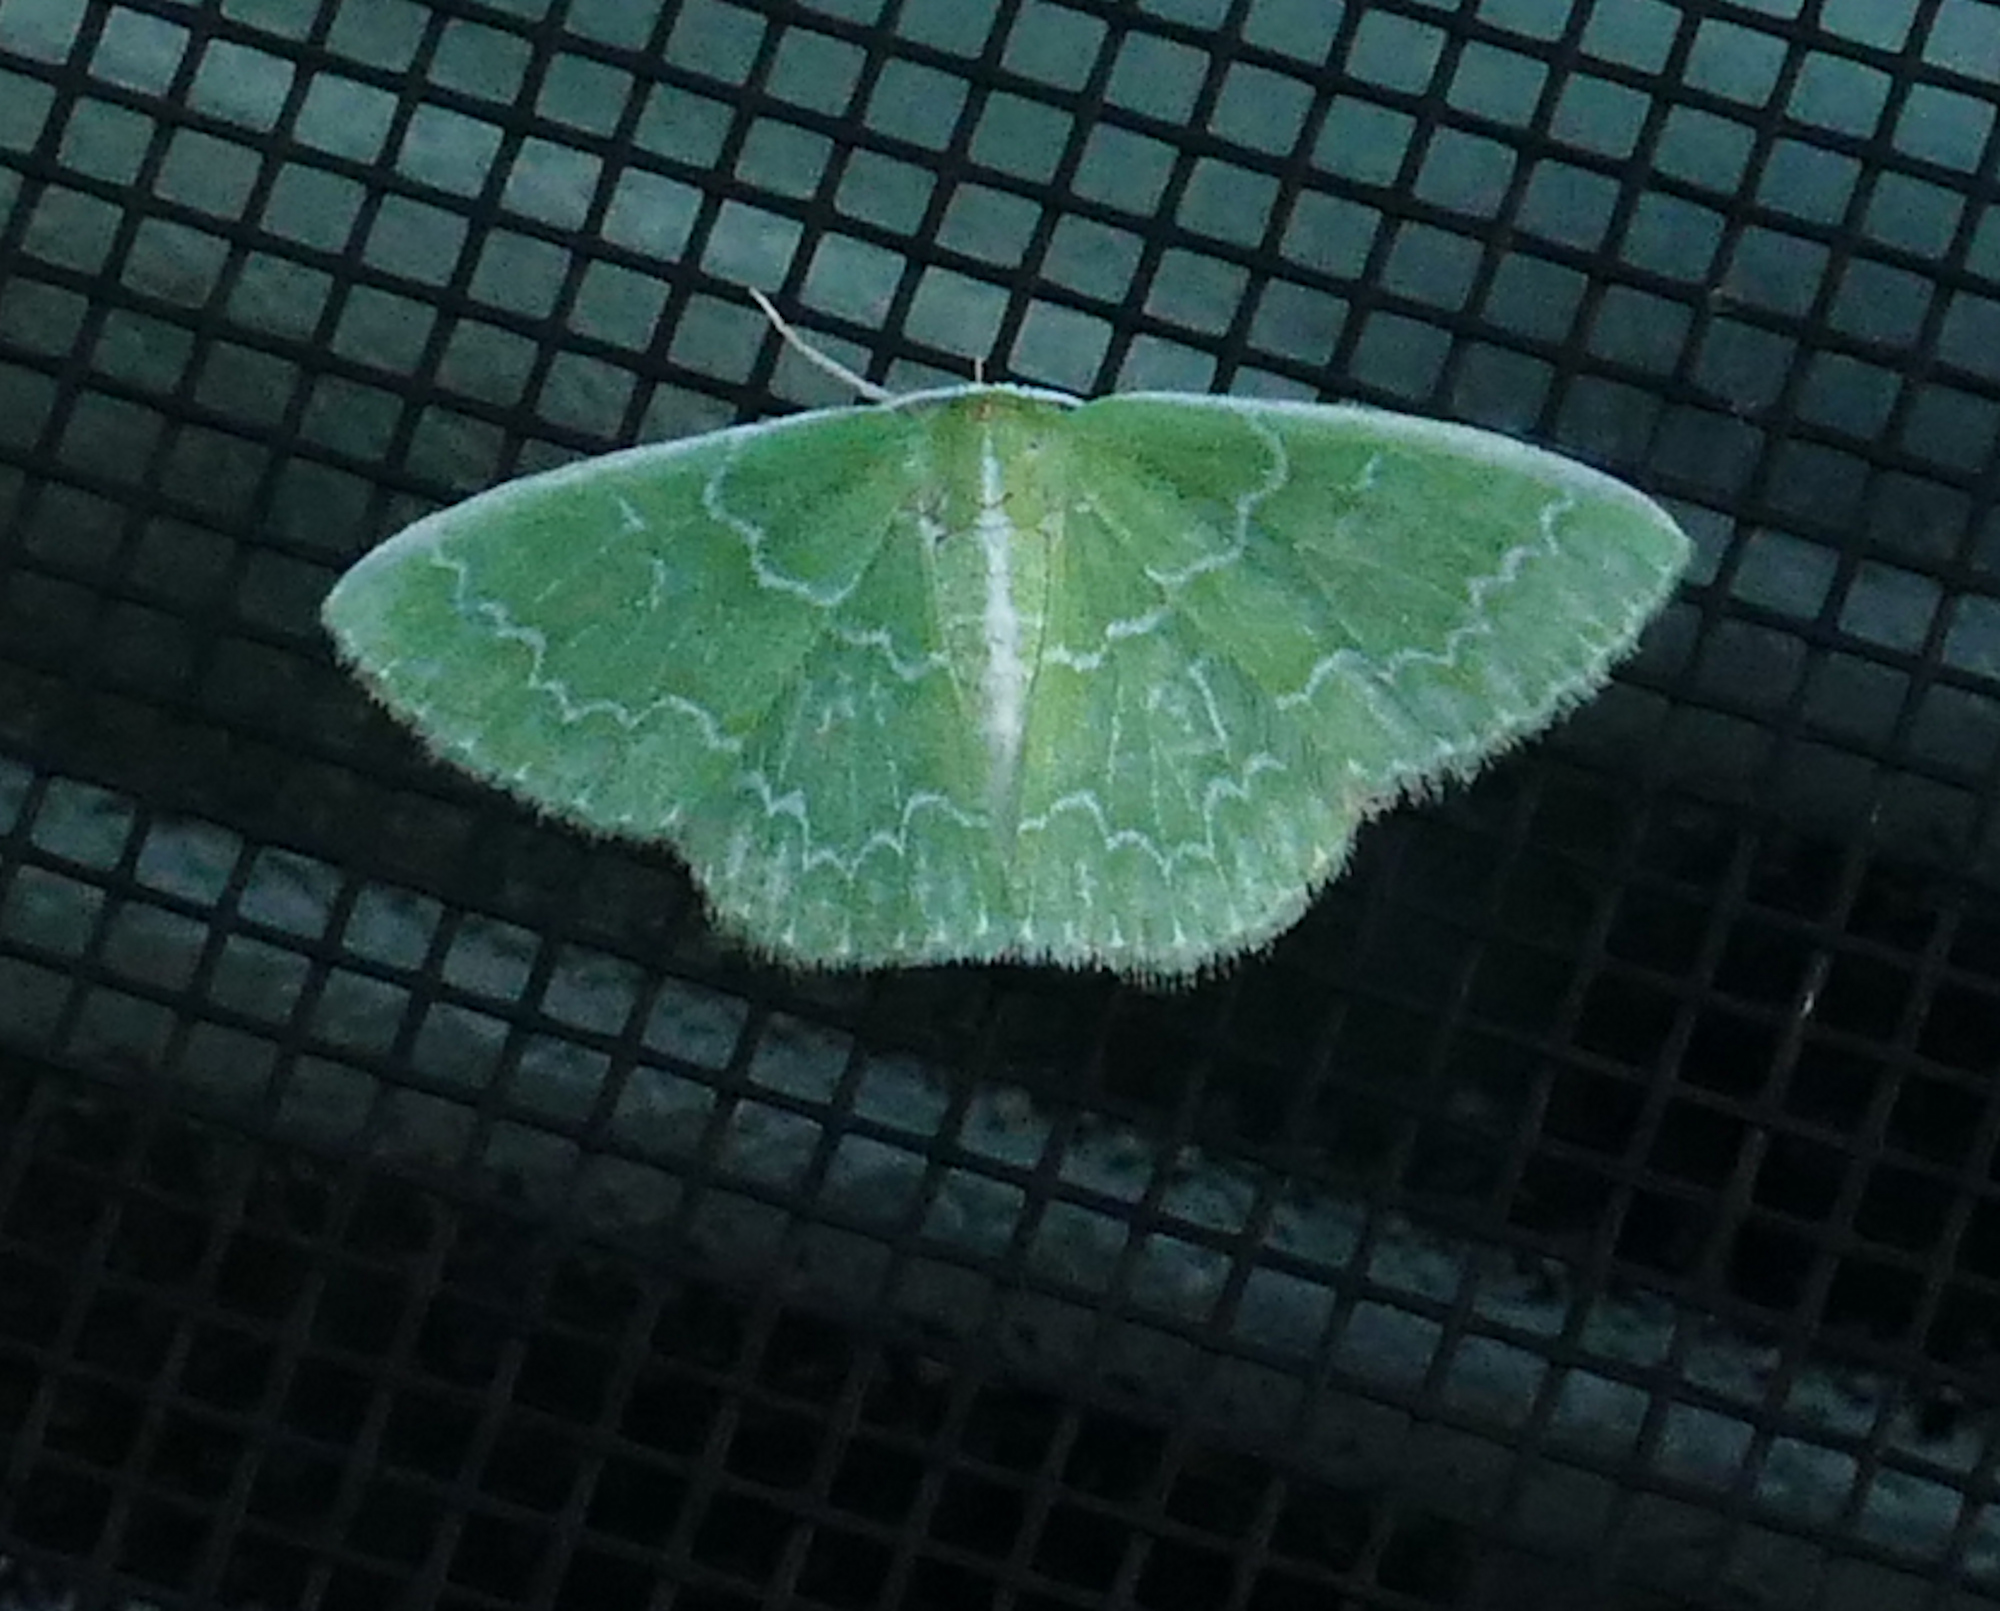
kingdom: Animalia
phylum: Arthropoda
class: Insecta
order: Lepidoptera
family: Geometridae
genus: Synchlora
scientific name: Synchlora frondaria
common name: Southern emerald
